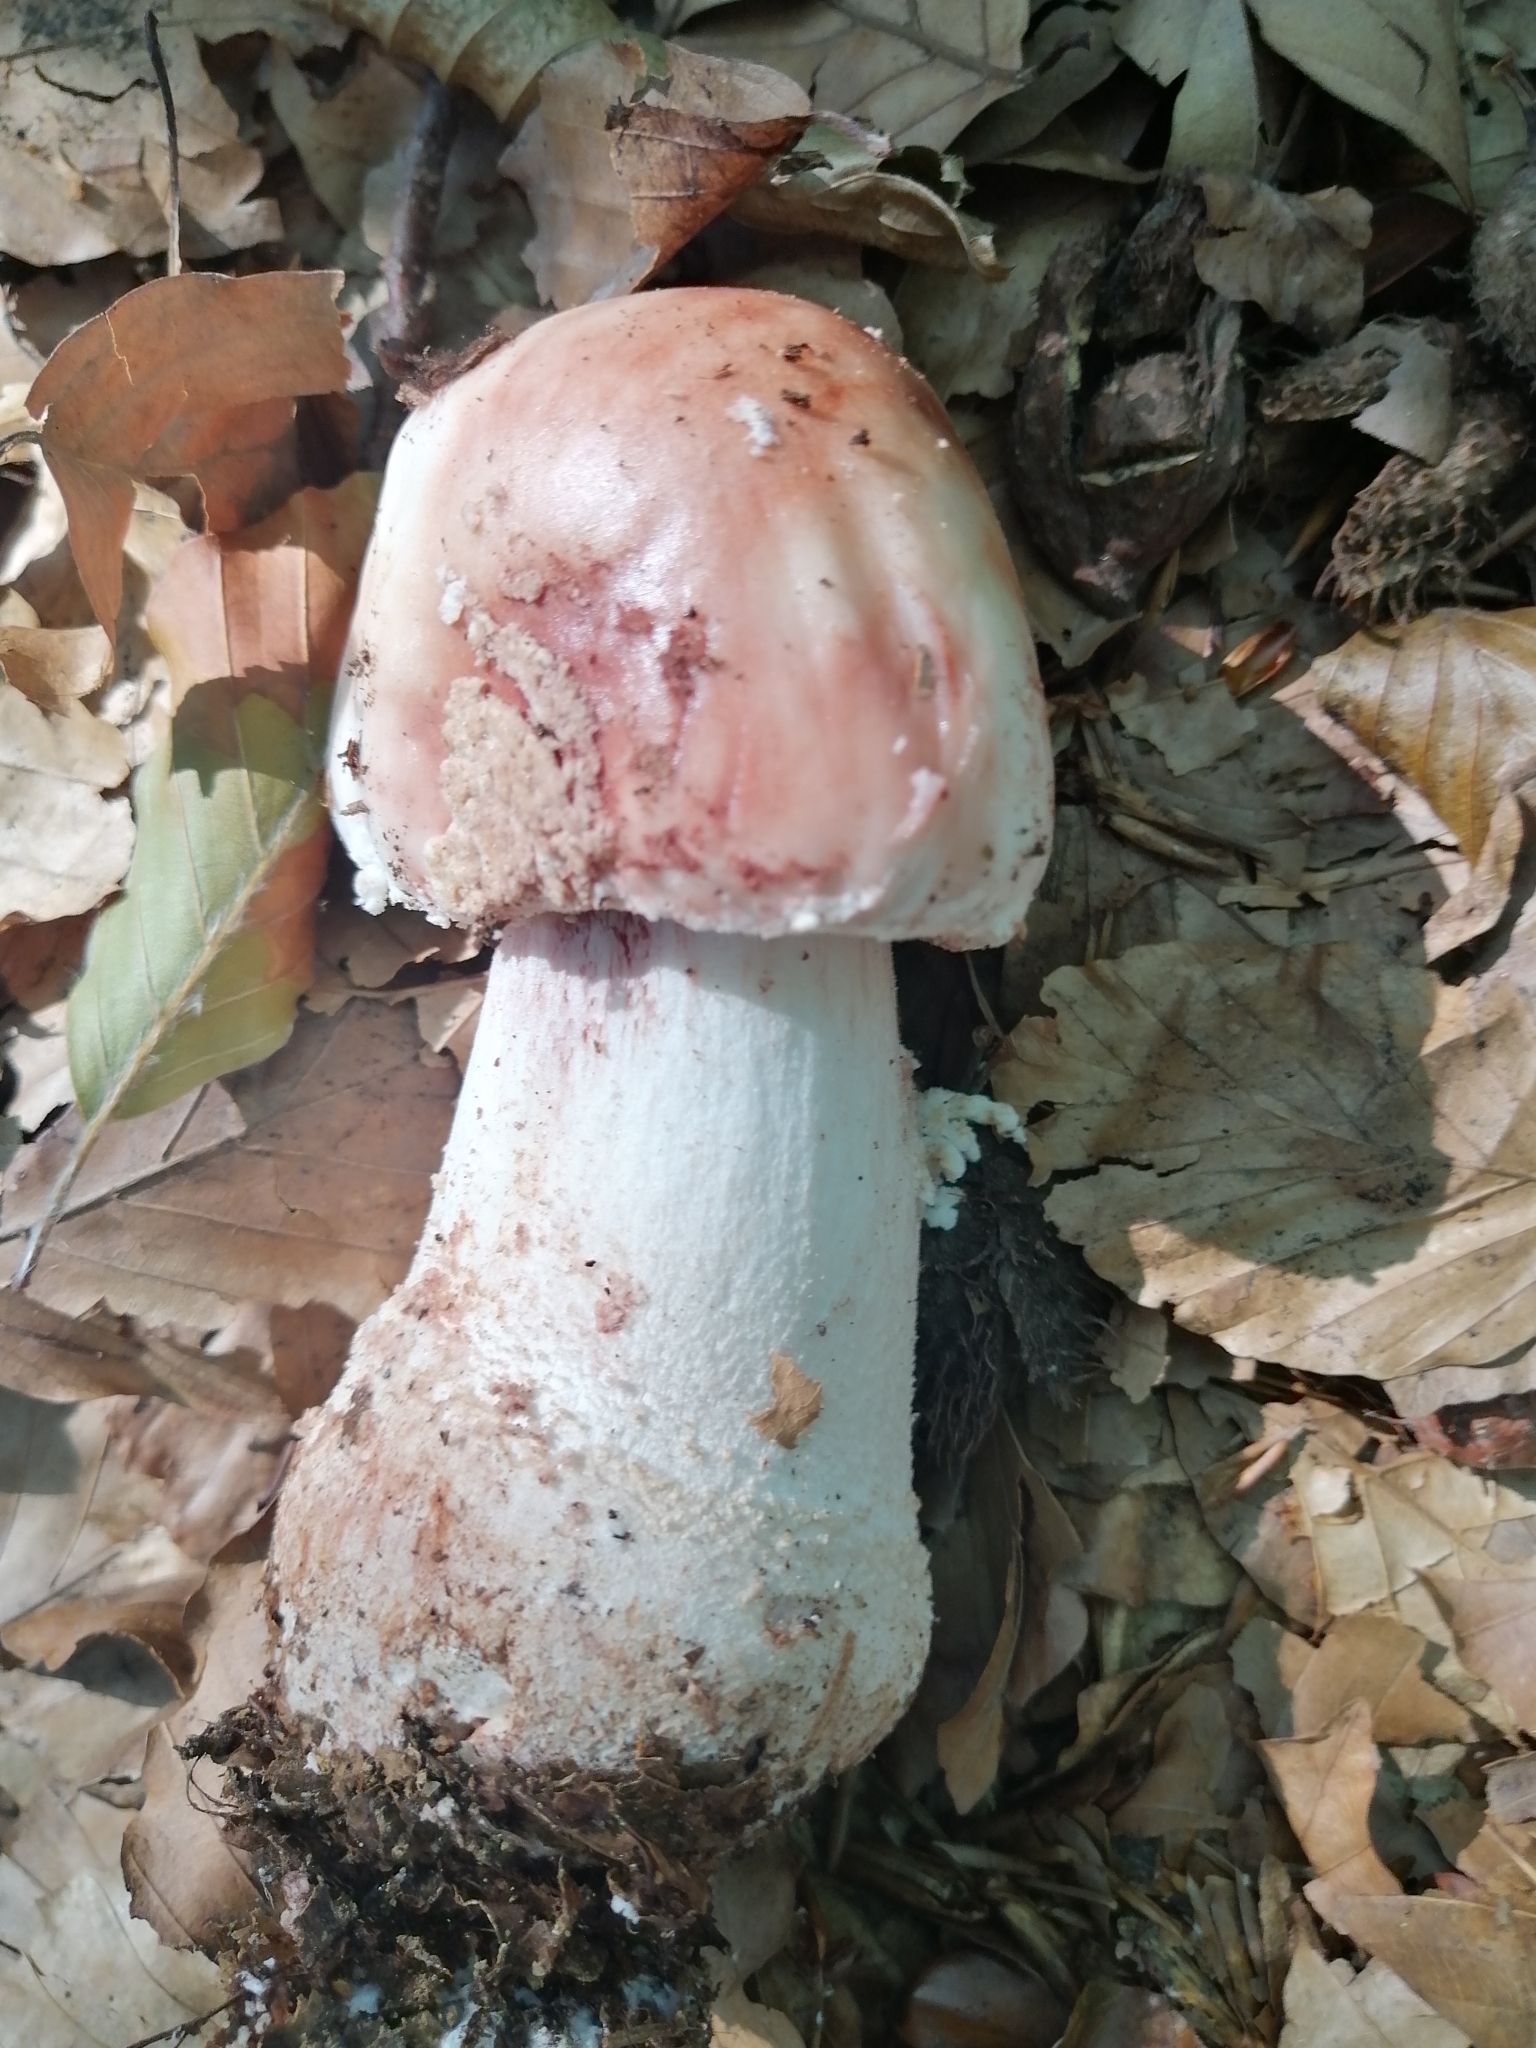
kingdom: Fungi
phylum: Basidiomycota
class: Agaricomycetes
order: Agaricales
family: Amanitaceae
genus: Amanita
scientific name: Amanita rubescens
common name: Blusher
